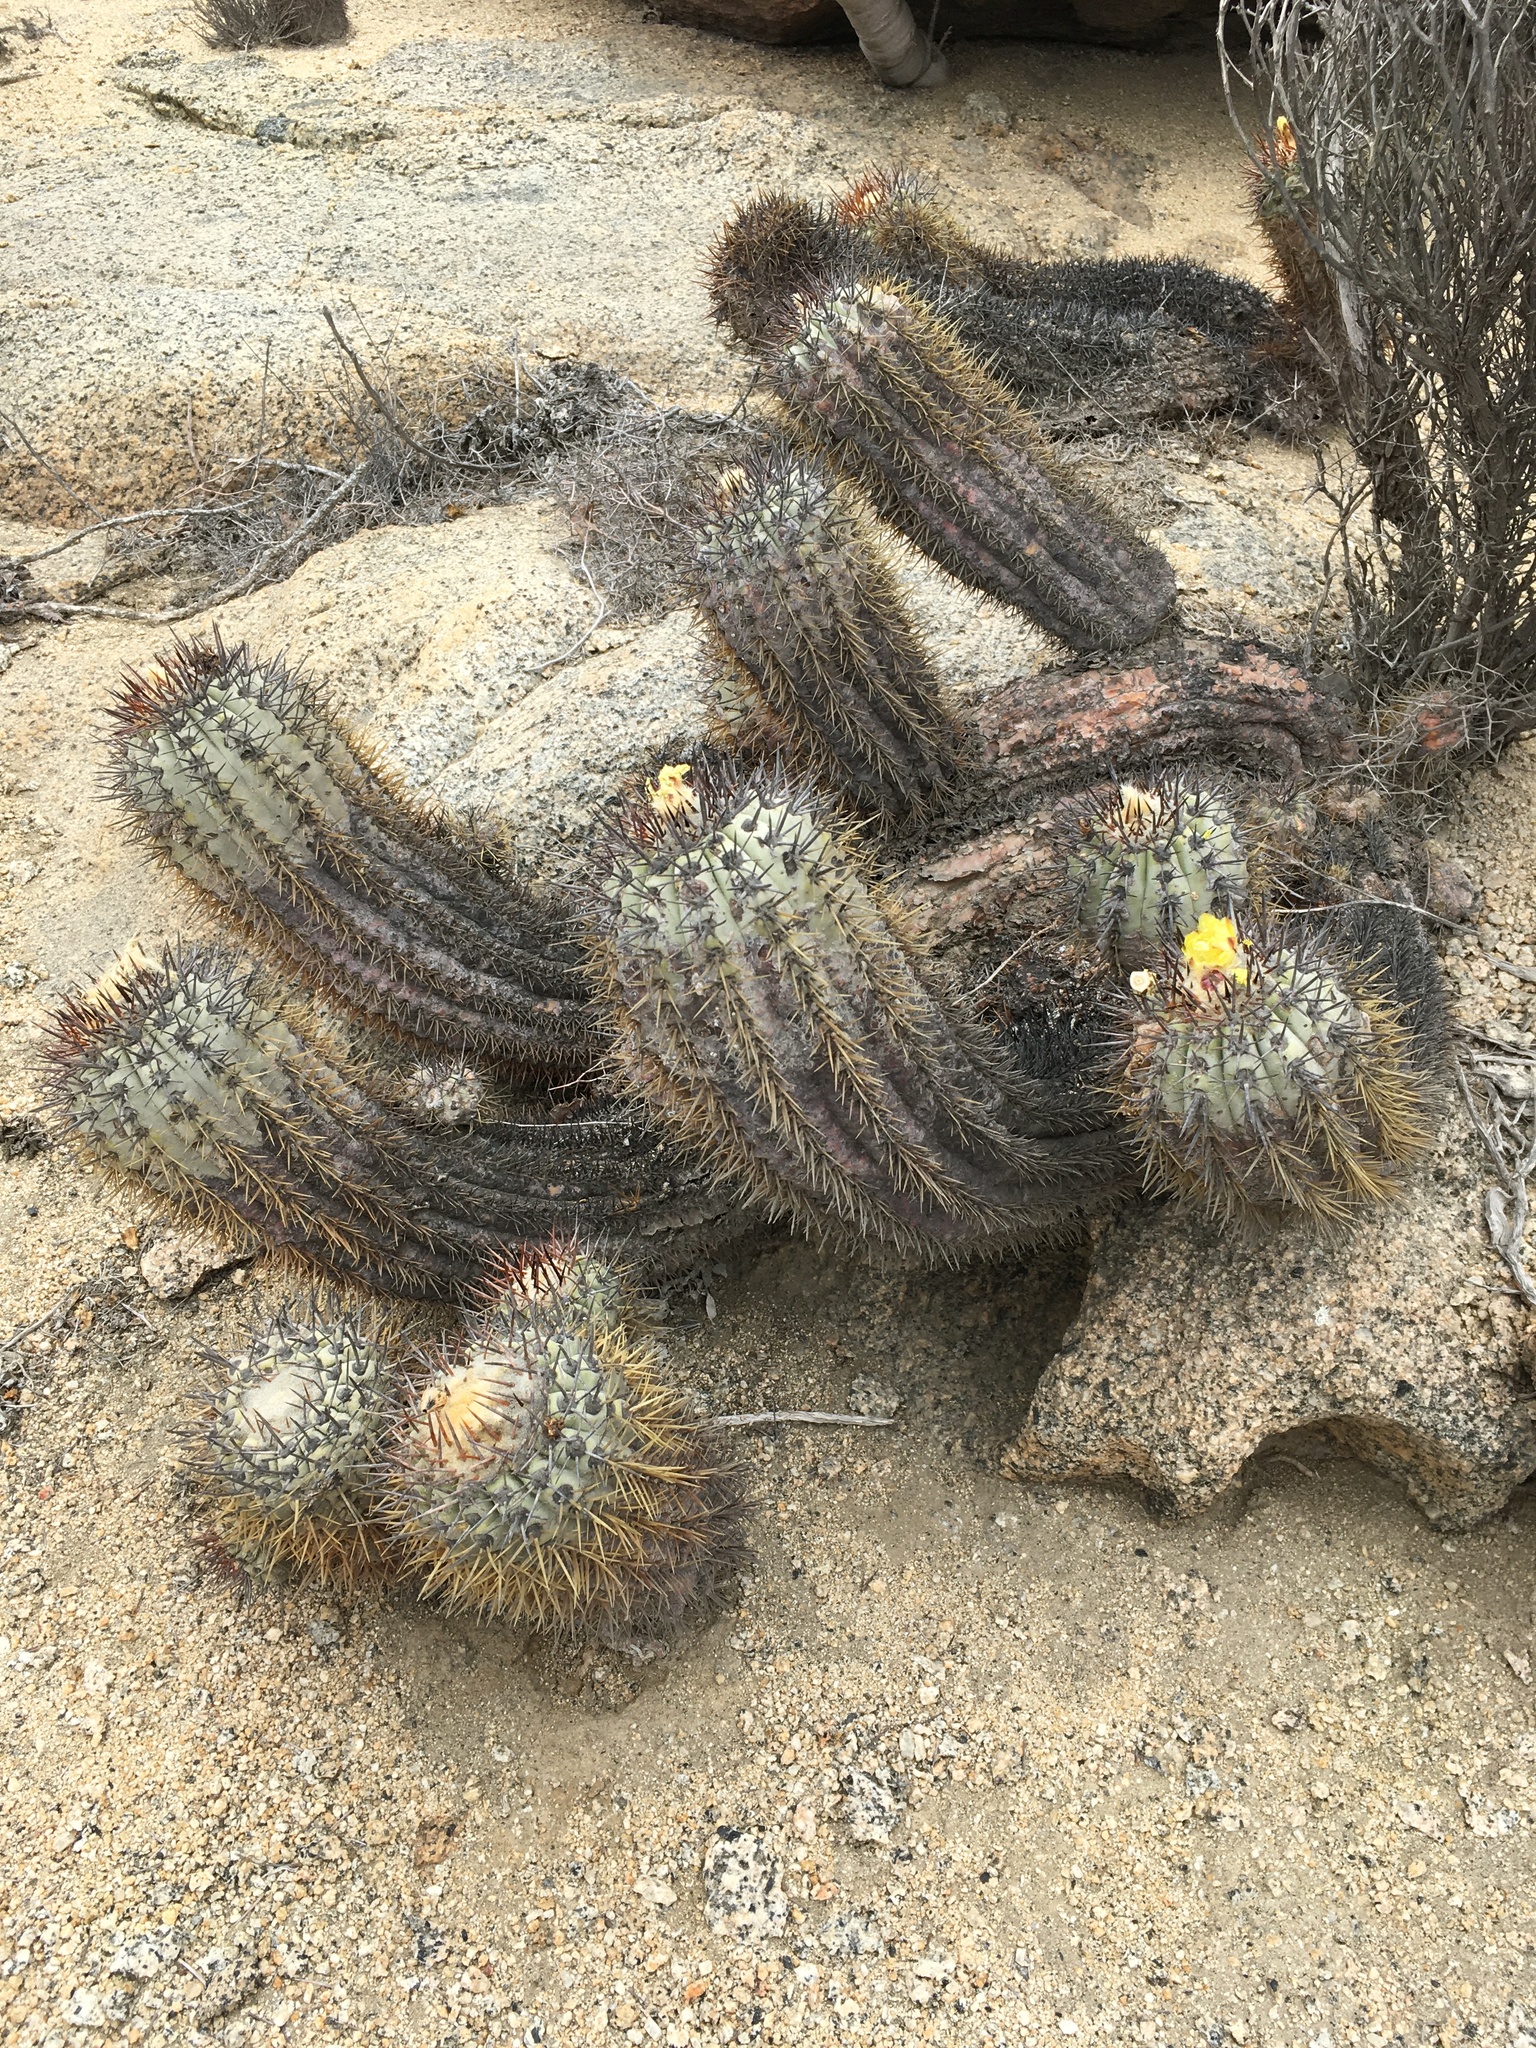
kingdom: Plantae
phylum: Tracheophyta
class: Magnoliopsida
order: Caryophyllales
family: Cactaceae
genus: Copiapoa
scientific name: Copiapoa calderana
